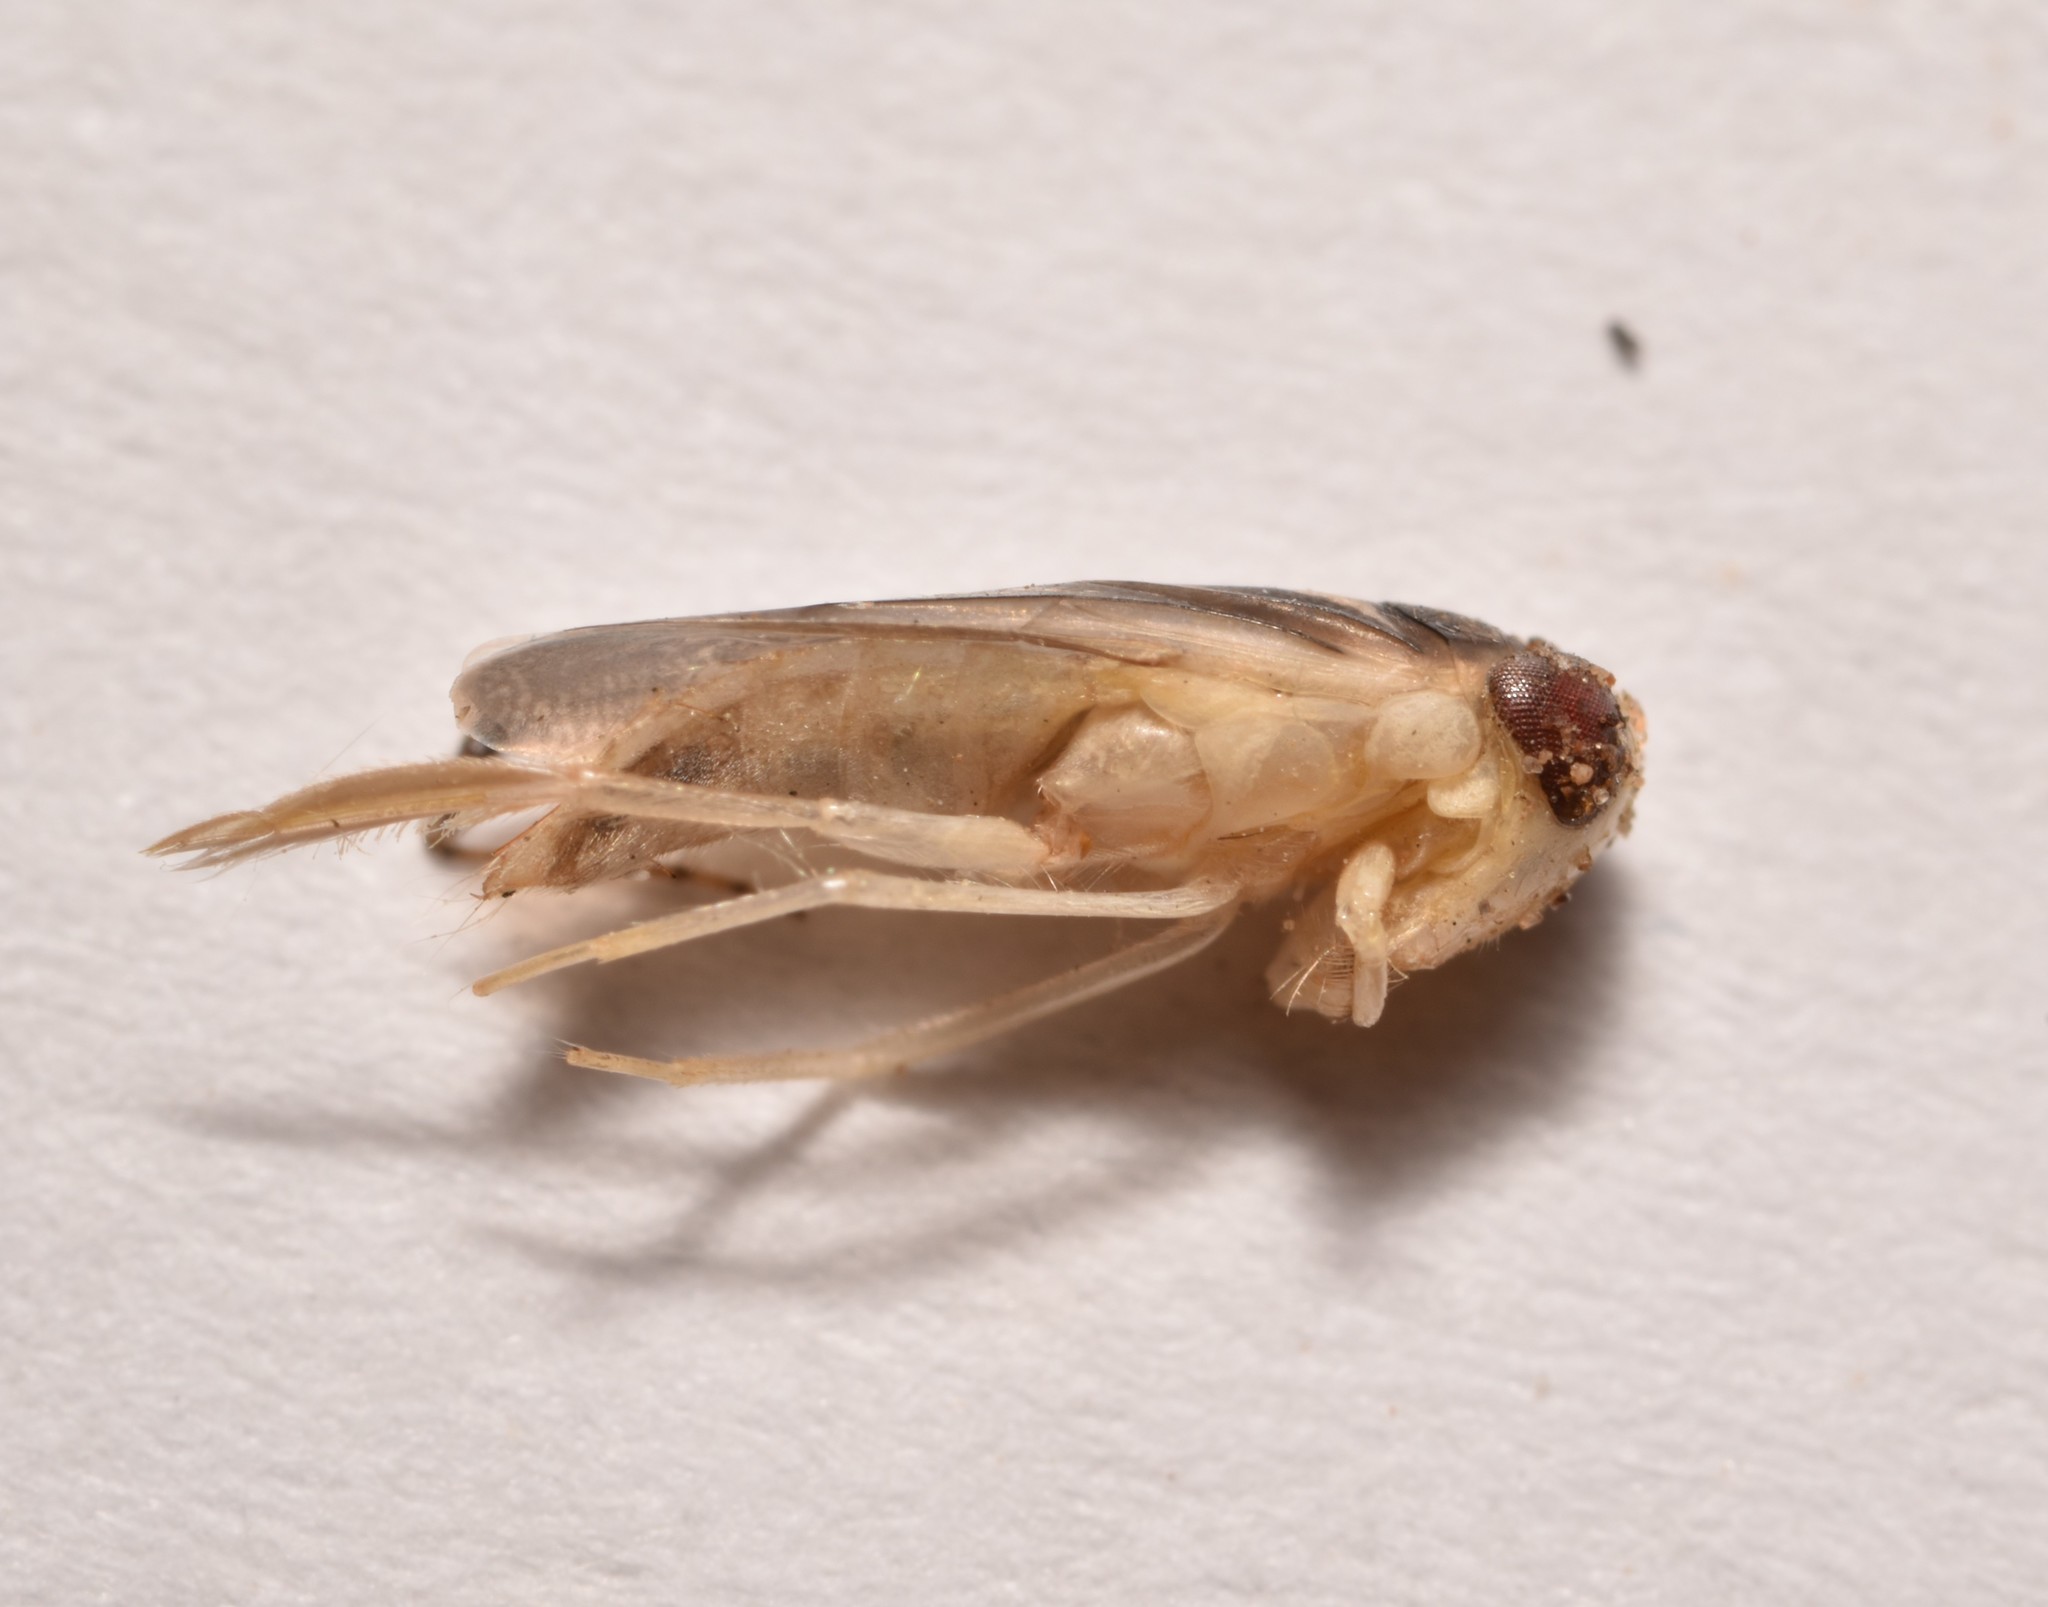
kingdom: Animalia
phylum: Arthropoda
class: Insecta
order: Hemiptera
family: Corixidae
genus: Ramphocorixa
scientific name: Ramphocorixa acuminata
